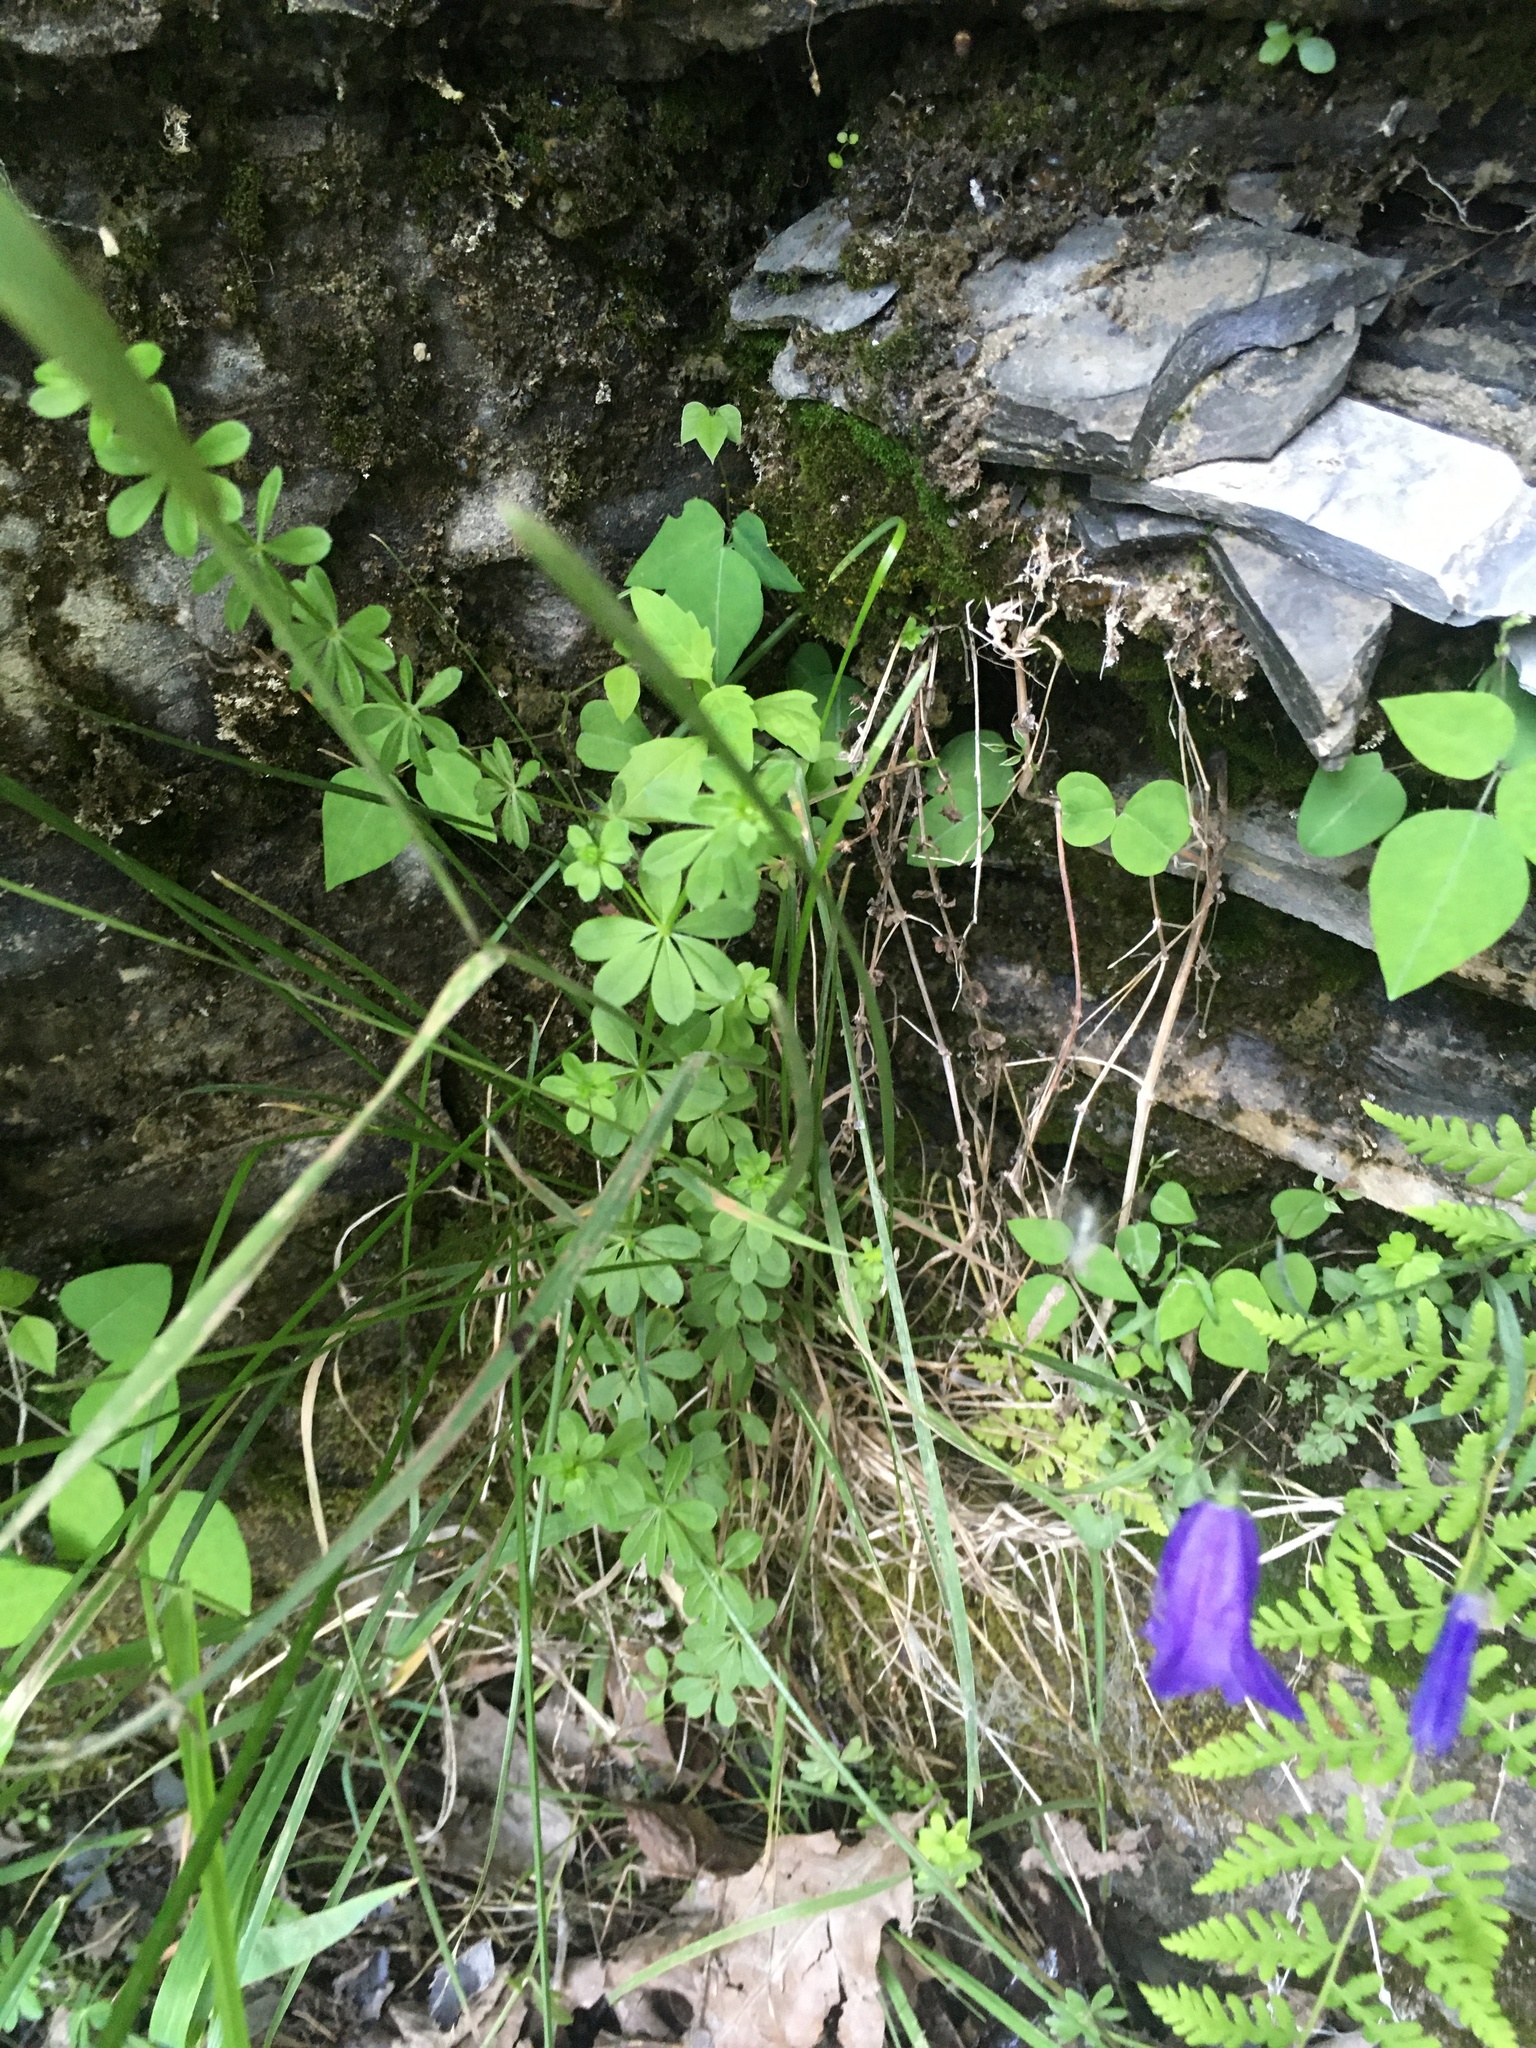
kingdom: Plantae
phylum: Tracheophyta
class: Magnoliopsida
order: Gentianales
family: Rubiaceae
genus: Galium
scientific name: Galium triflorum
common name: Fragrant bedstraw
